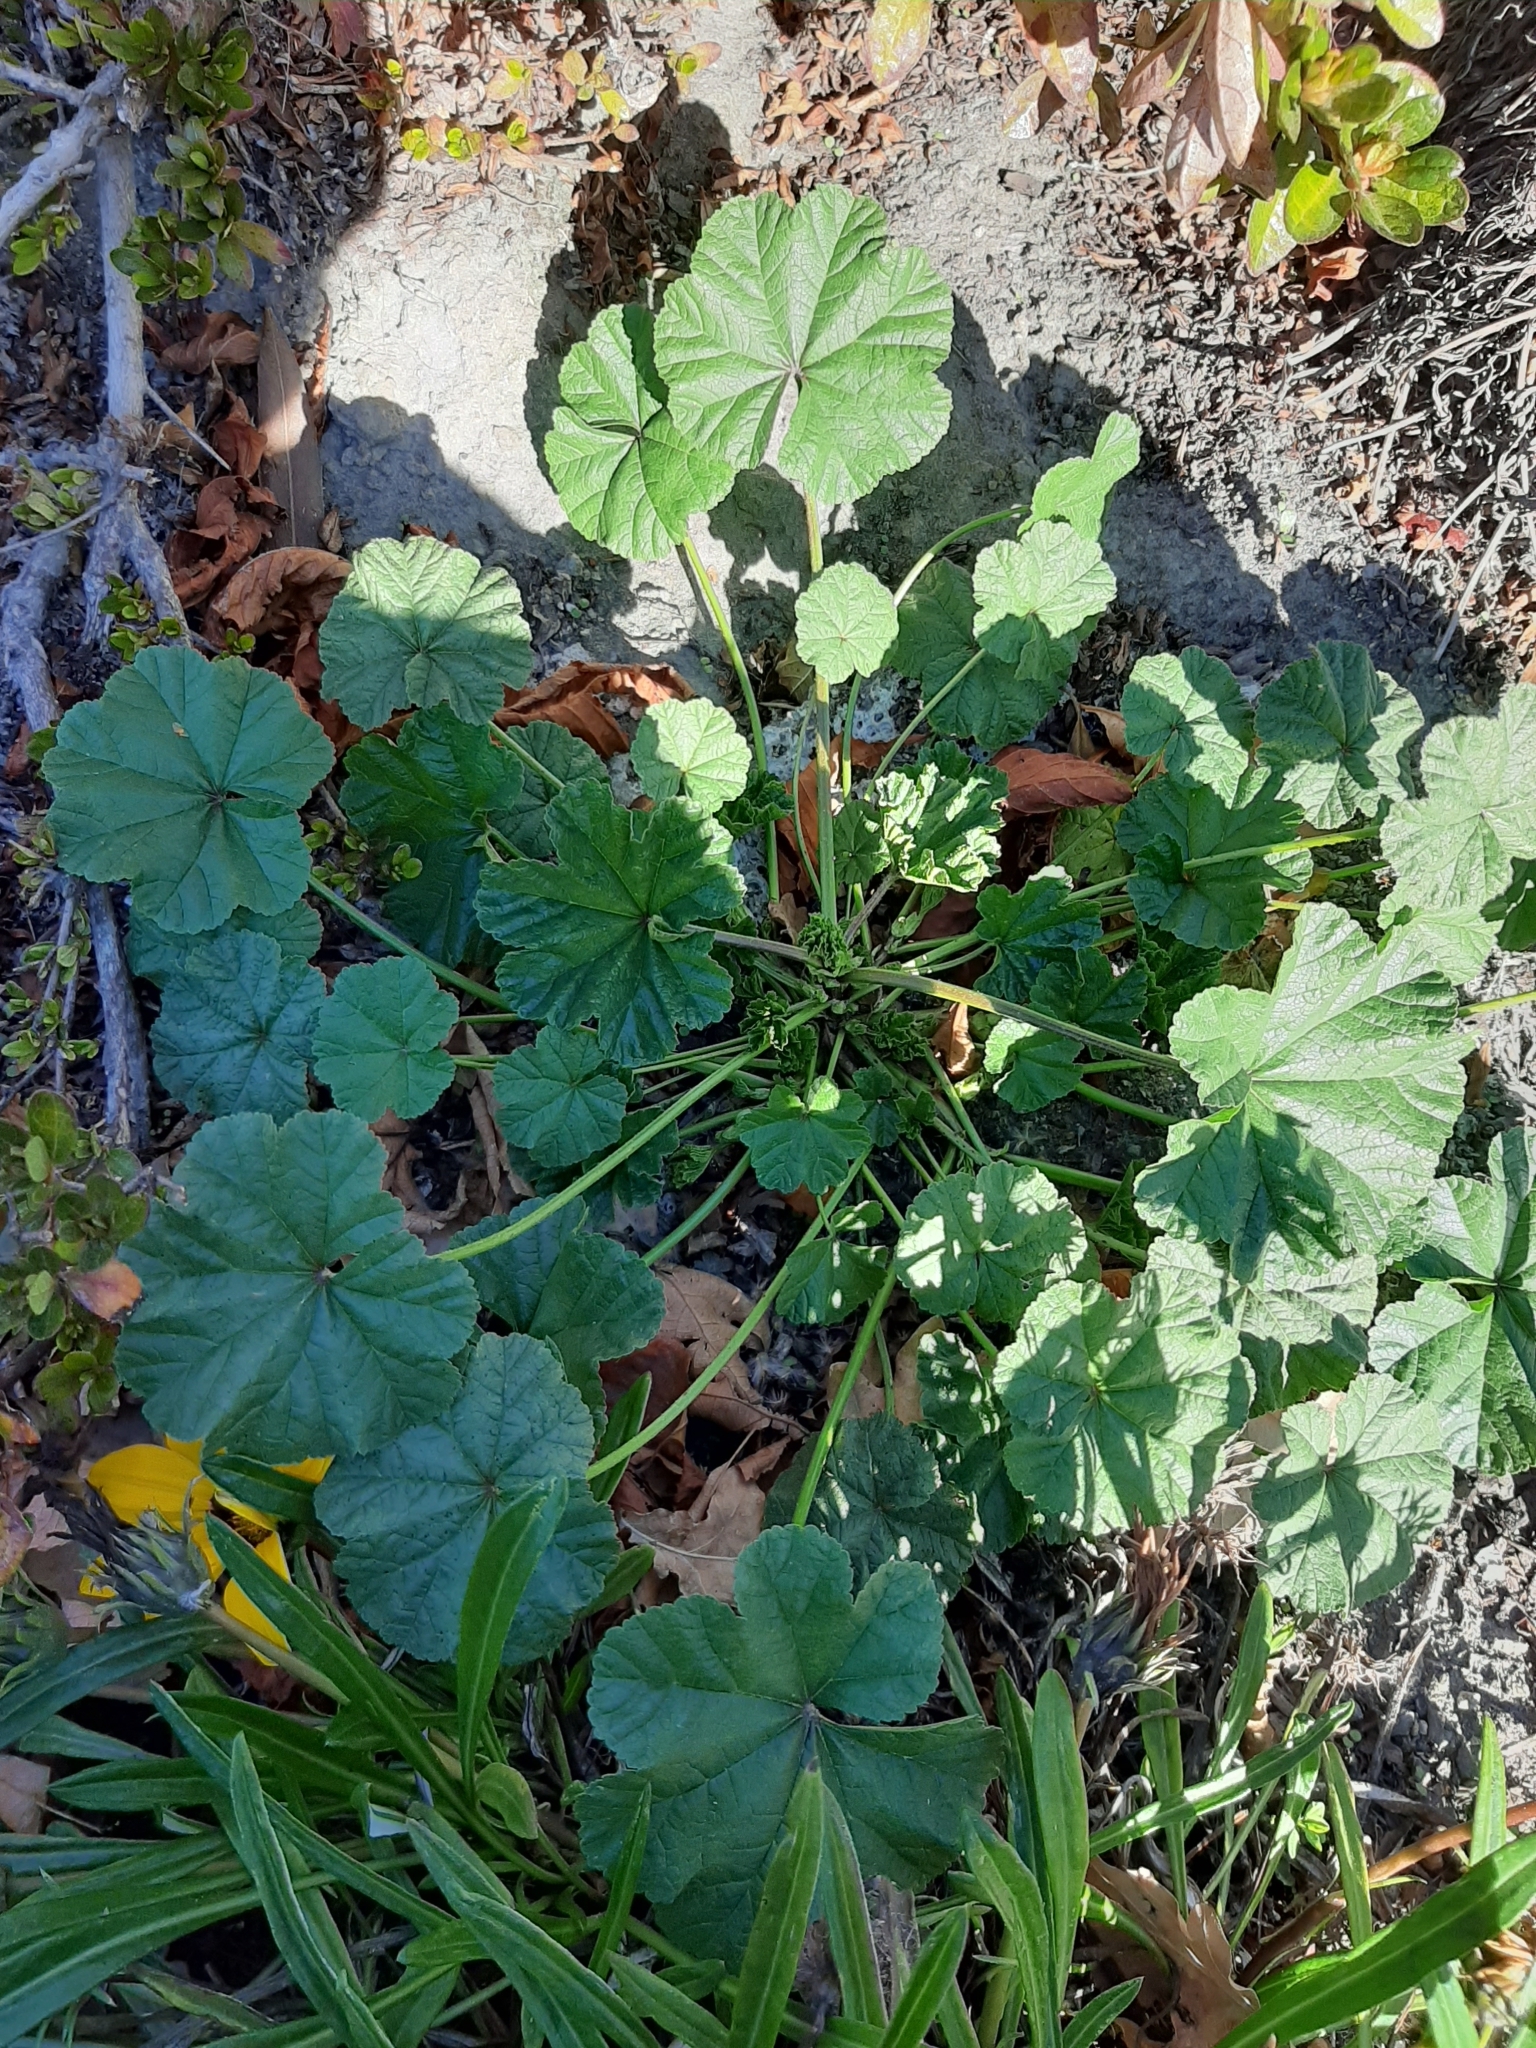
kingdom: Plantae
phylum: Tracheophyta
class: Magnoliopsida
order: Malvales
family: Malvaceae
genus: Malva
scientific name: Malva sylvestris
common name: Common mallow
